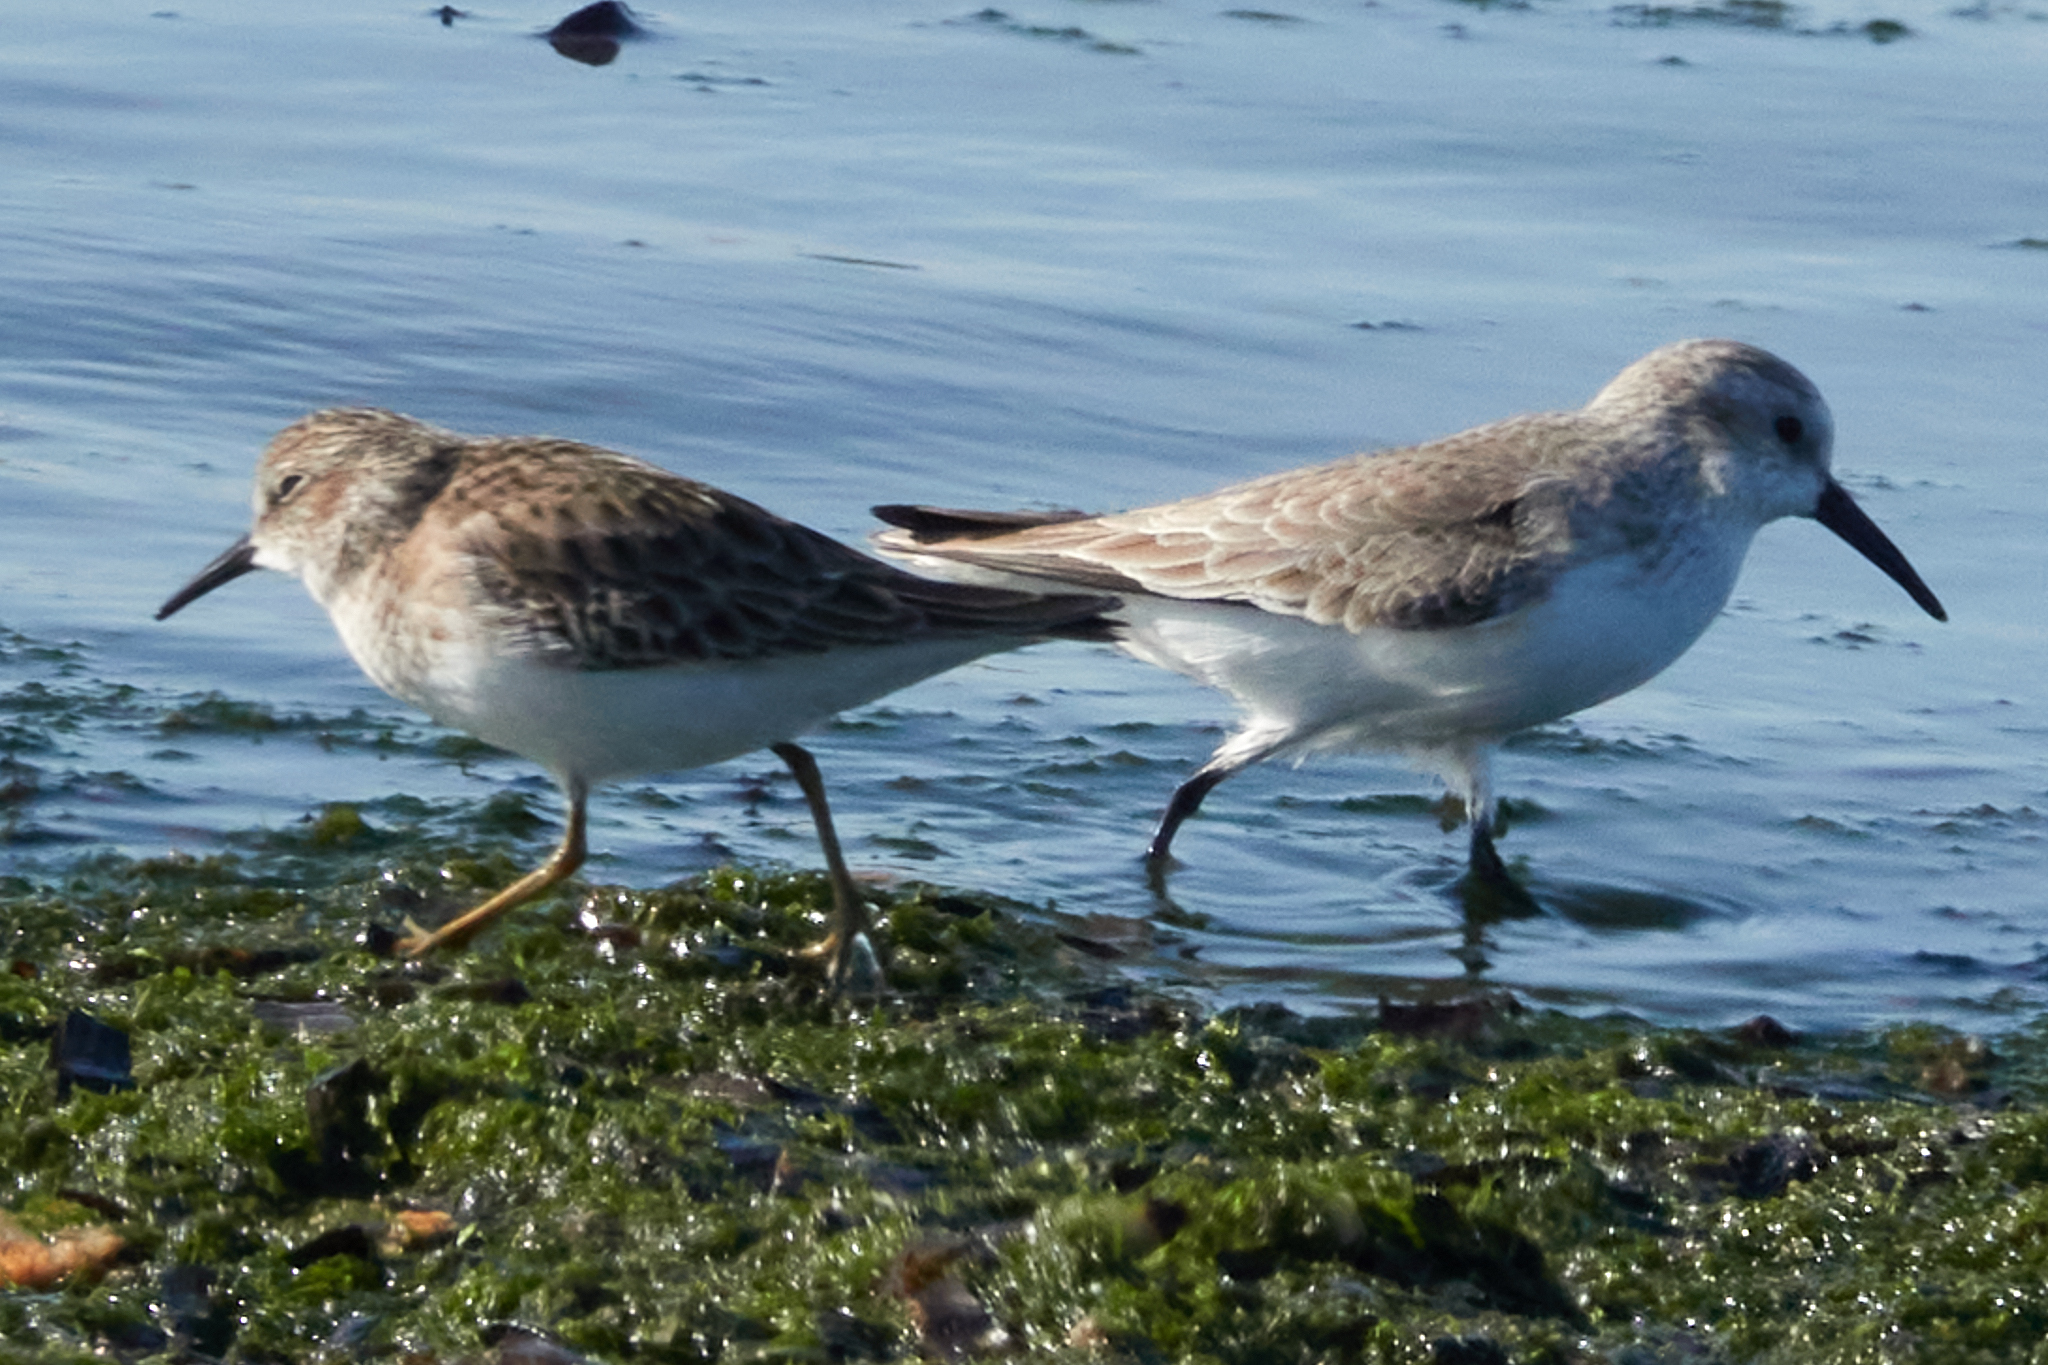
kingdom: Animalia
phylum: Chordata
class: Aves
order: Charadriiformes
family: Scolopacidae
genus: Calidris
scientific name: Calidris minutilla
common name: Least sandpiper
